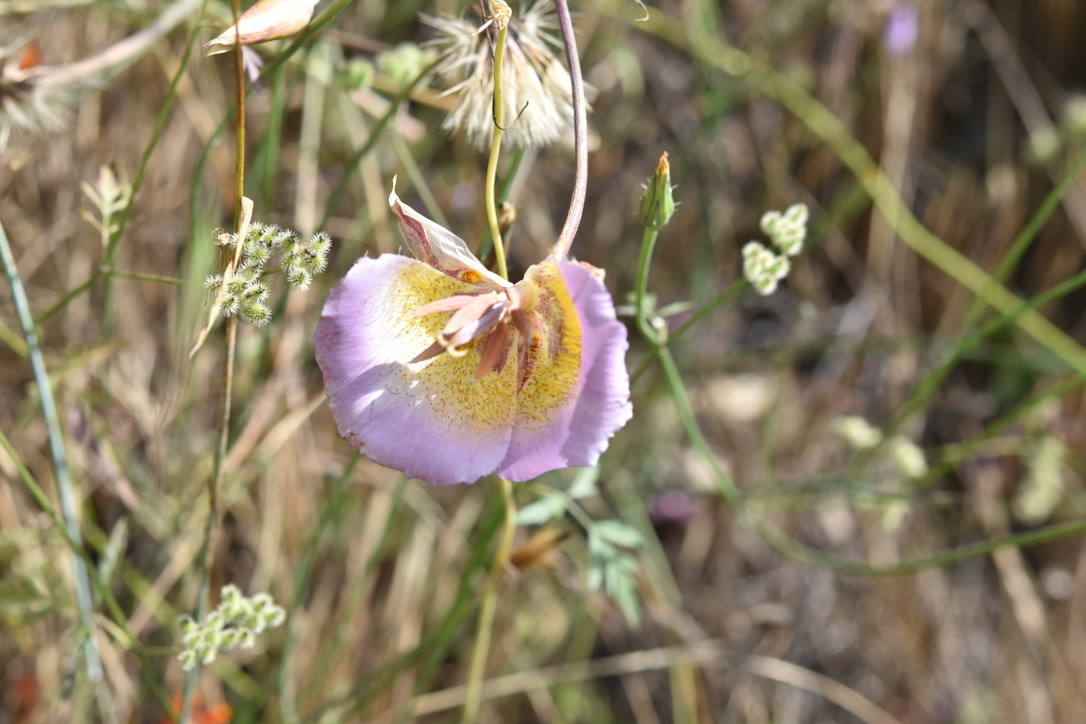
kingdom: Plantae
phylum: Tracheophyta
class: Liliopsida
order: Liliales
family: Liliaceae
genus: Calochortus
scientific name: Calochortus plummerae
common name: Plummer's mariposa-lily
